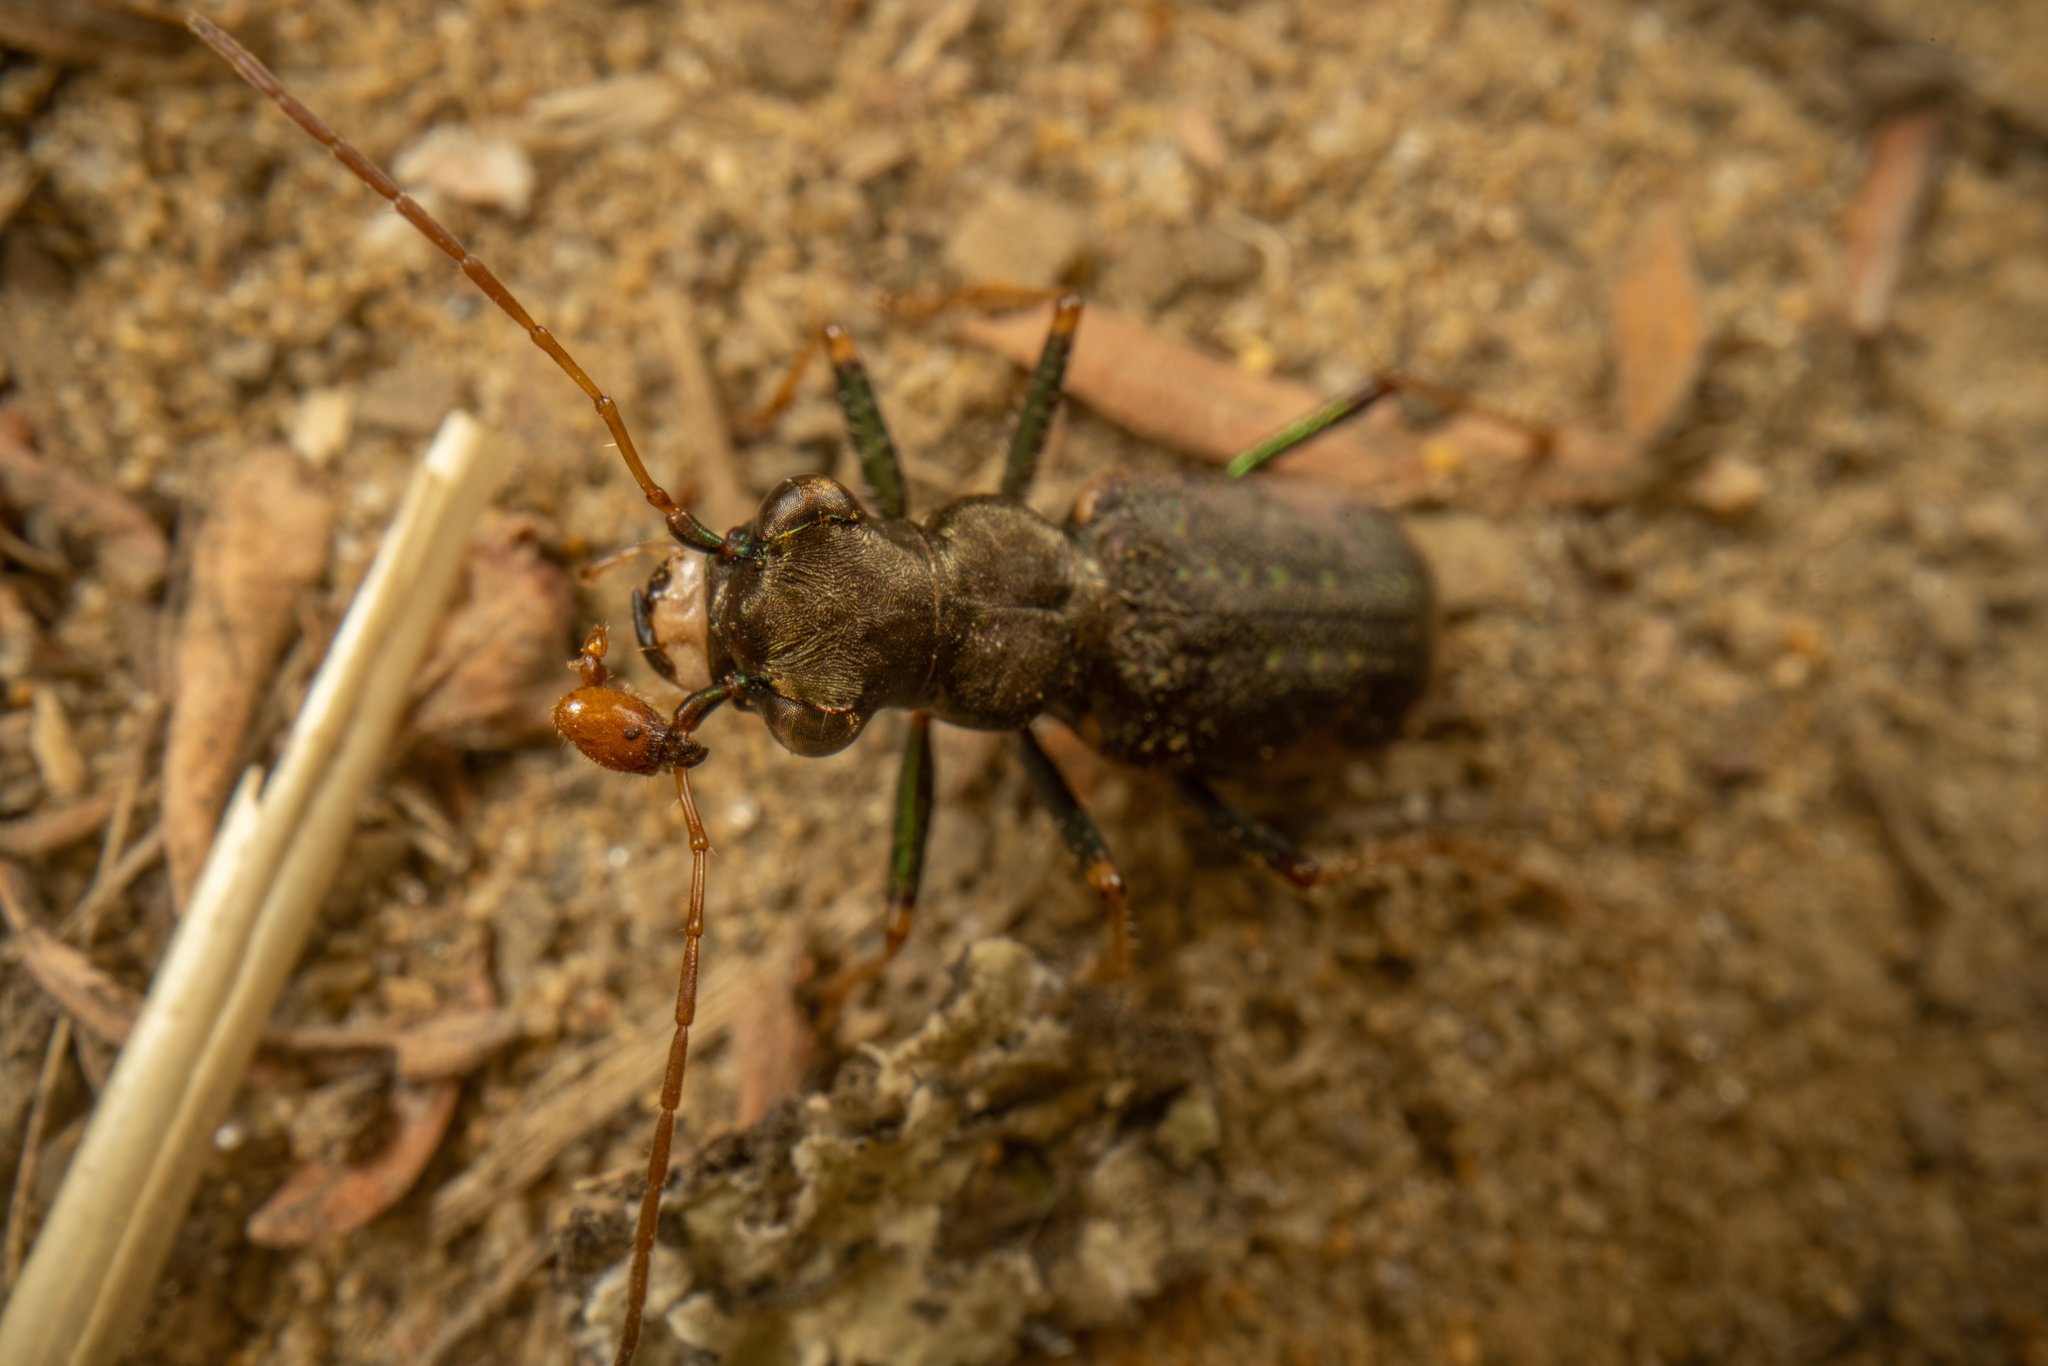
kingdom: Animalia
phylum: Arthropoda
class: Insecta
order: Coleoptera
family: Carabidae
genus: Neocicindela
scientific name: Neocicindela spilleri
